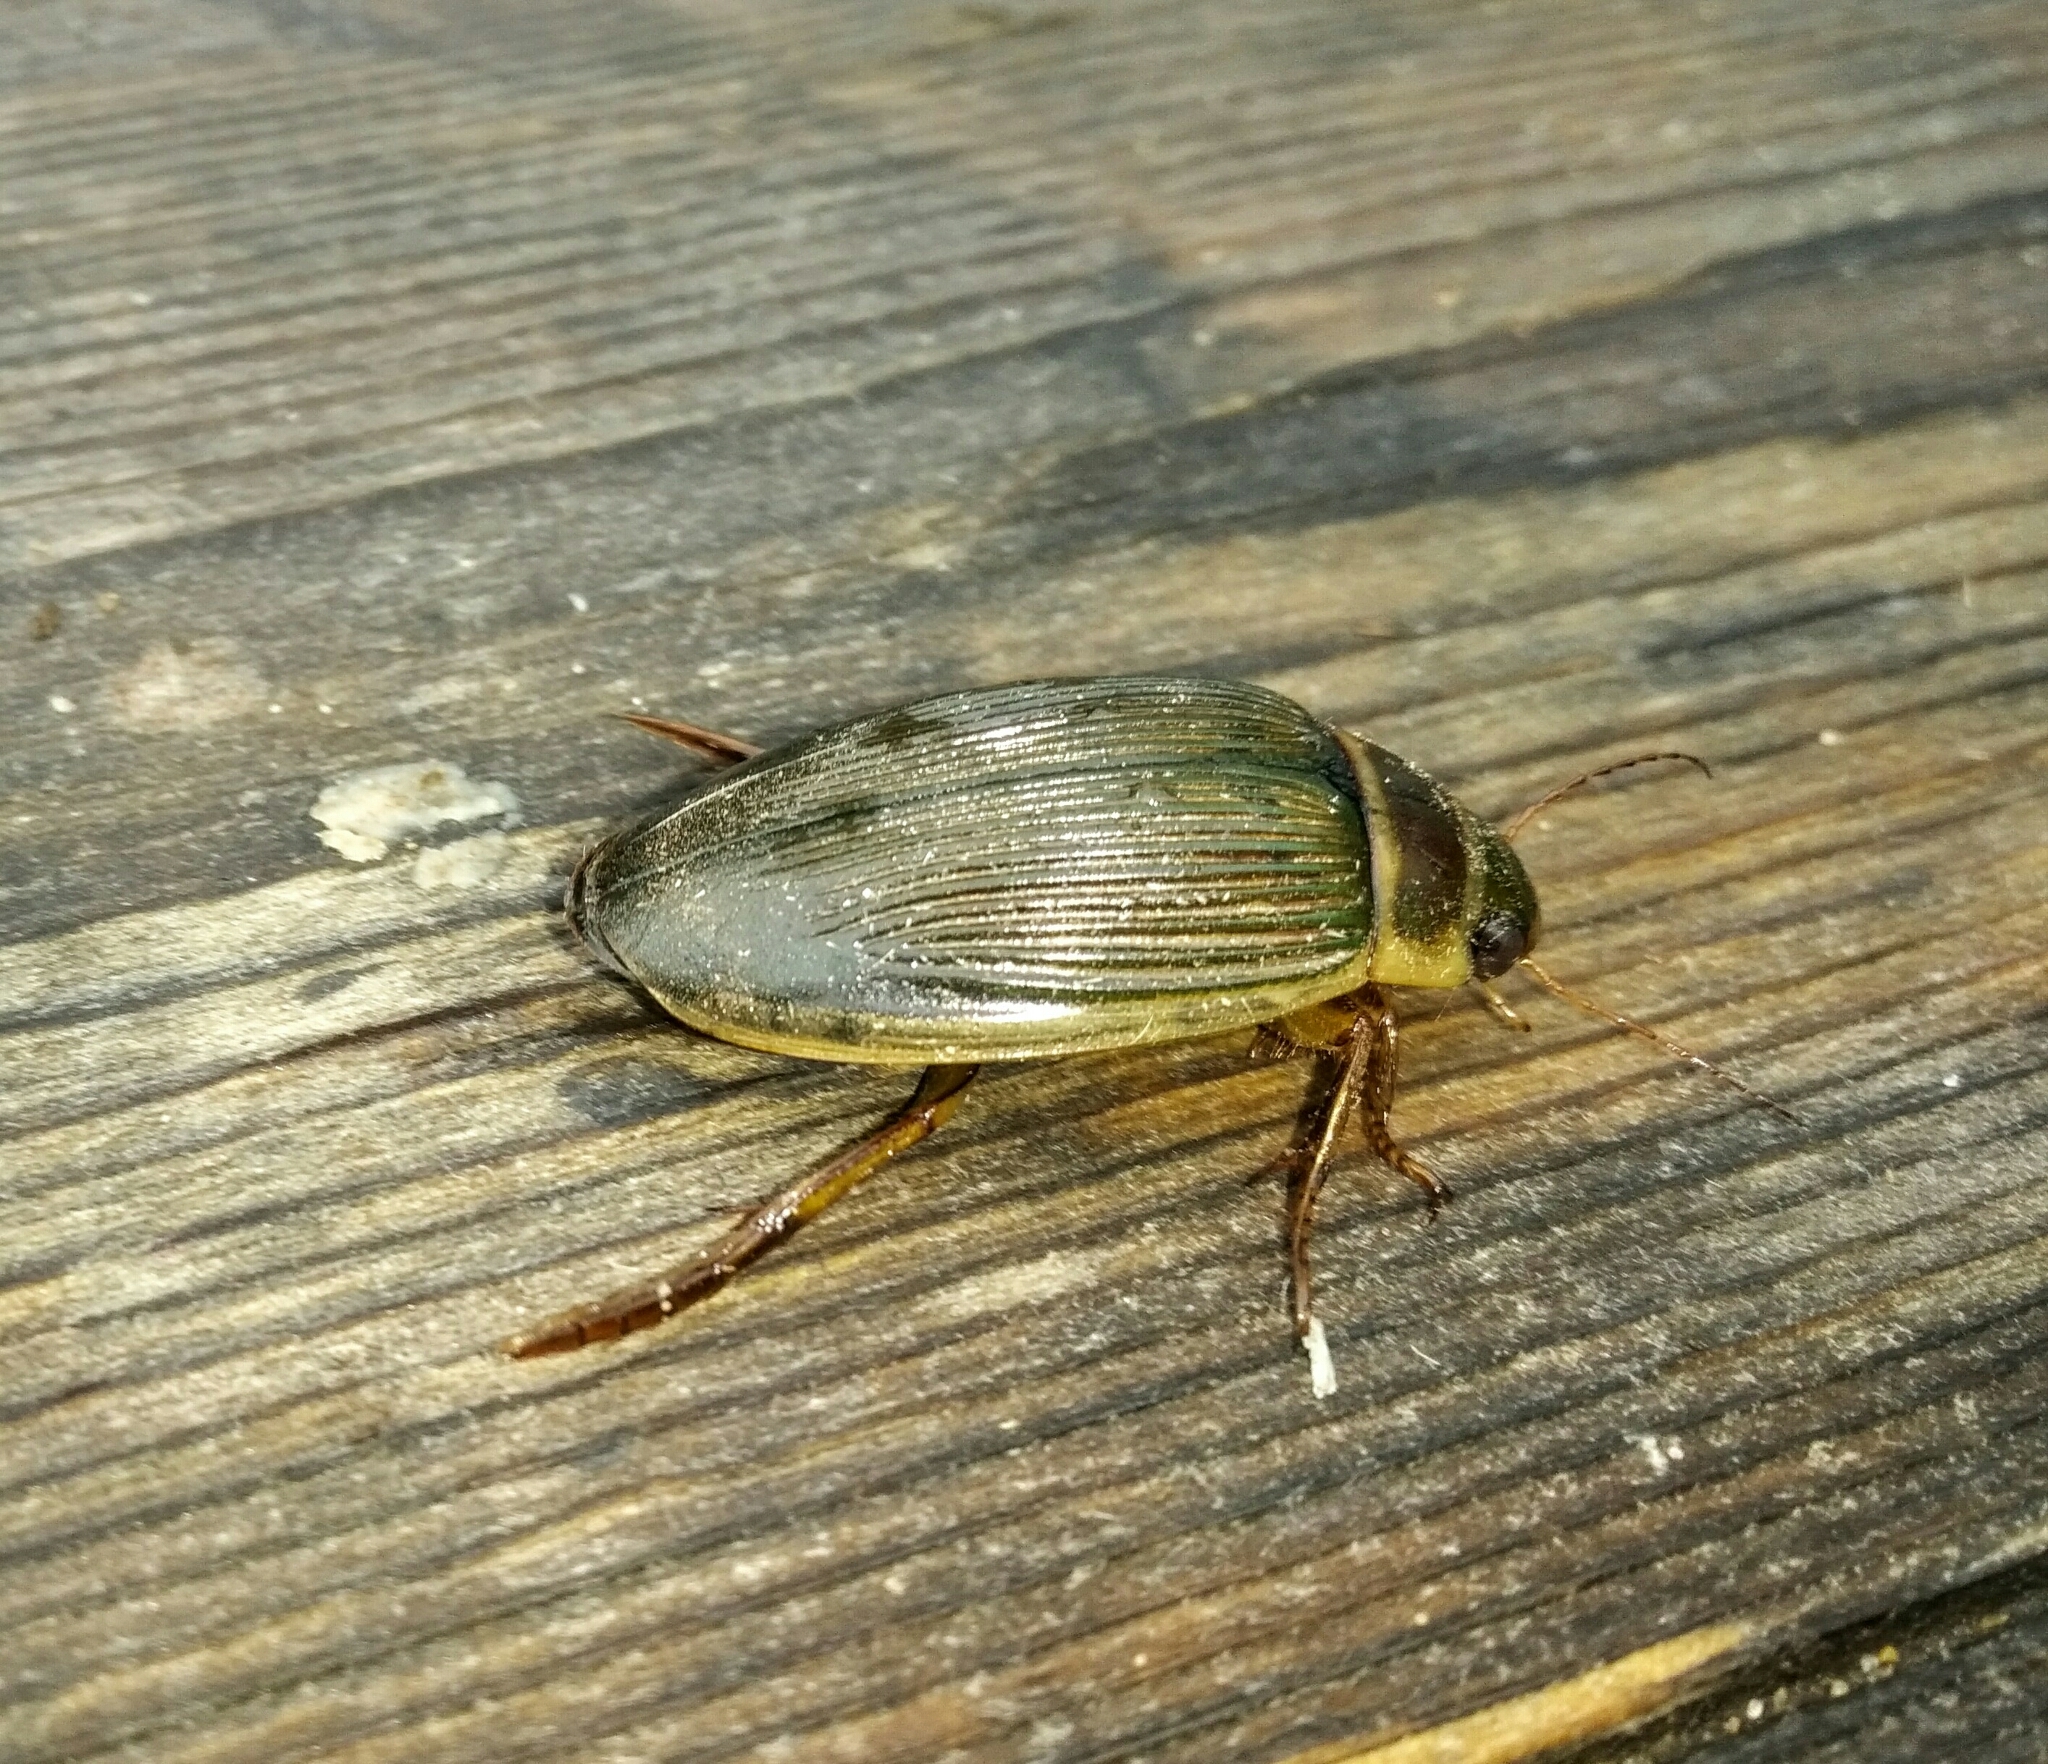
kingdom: Animalia
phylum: Arthropoda
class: Insecta
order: Coleoptera
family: Dytiscidae
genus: Dytiscus
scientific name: Dytiscus
